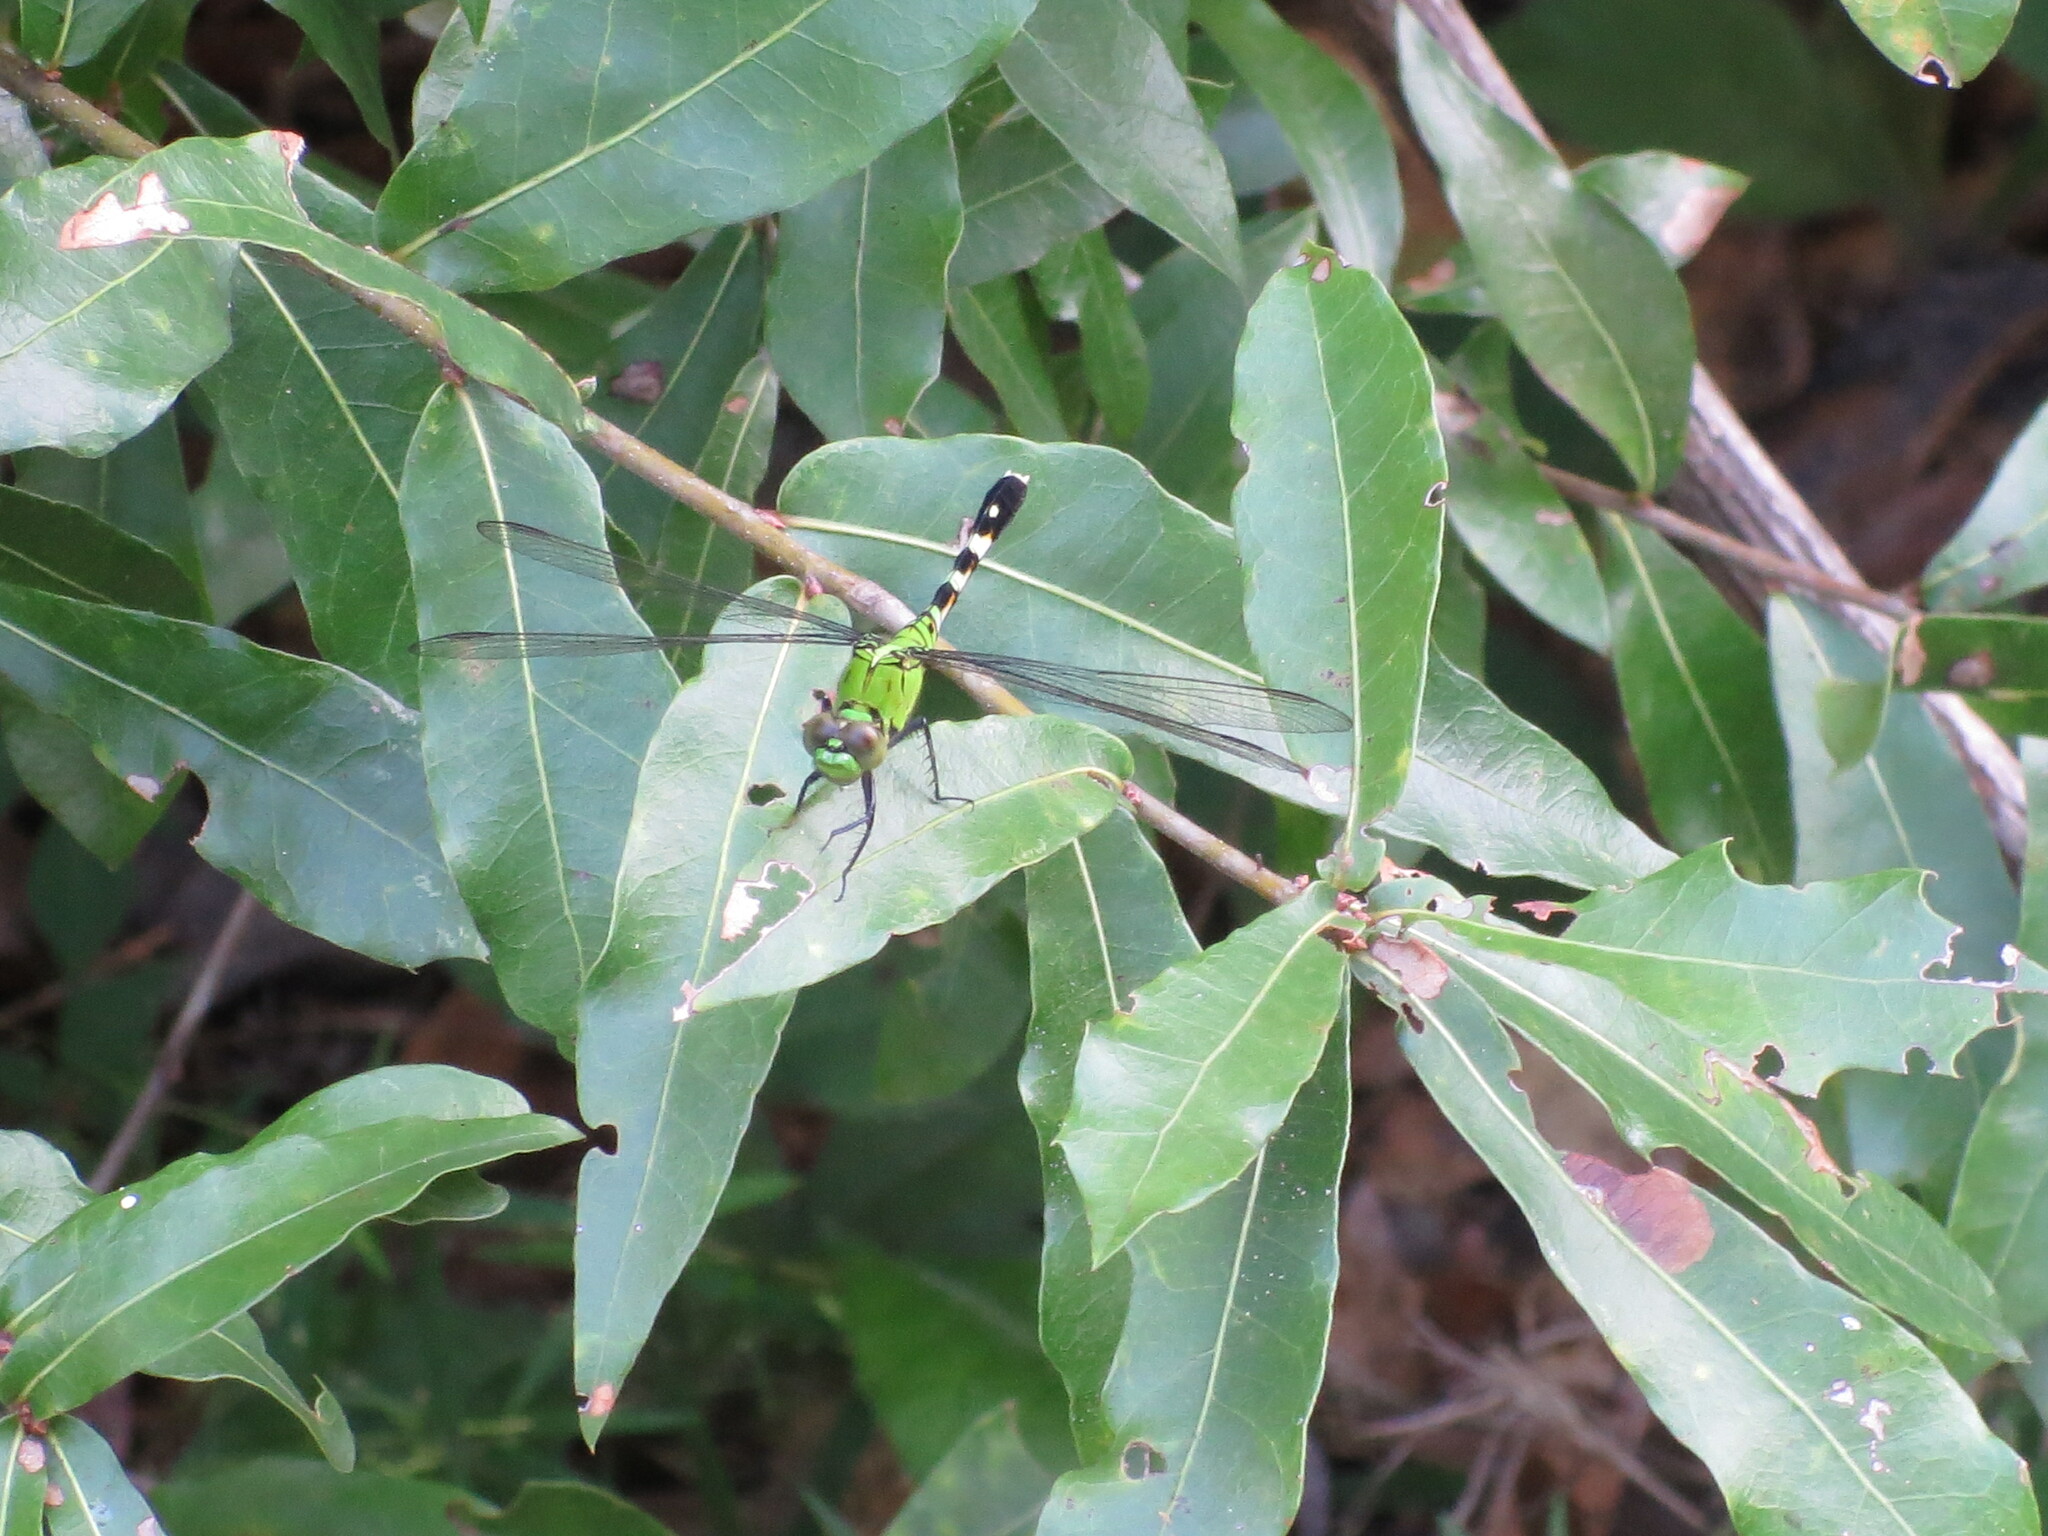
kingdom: Animalia
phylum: Arthropoda
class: Insecta
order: Odonata
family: Libellulidae
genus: Erythemis
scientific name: Erythemis simplicicollis
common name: Eastern pondhawk
